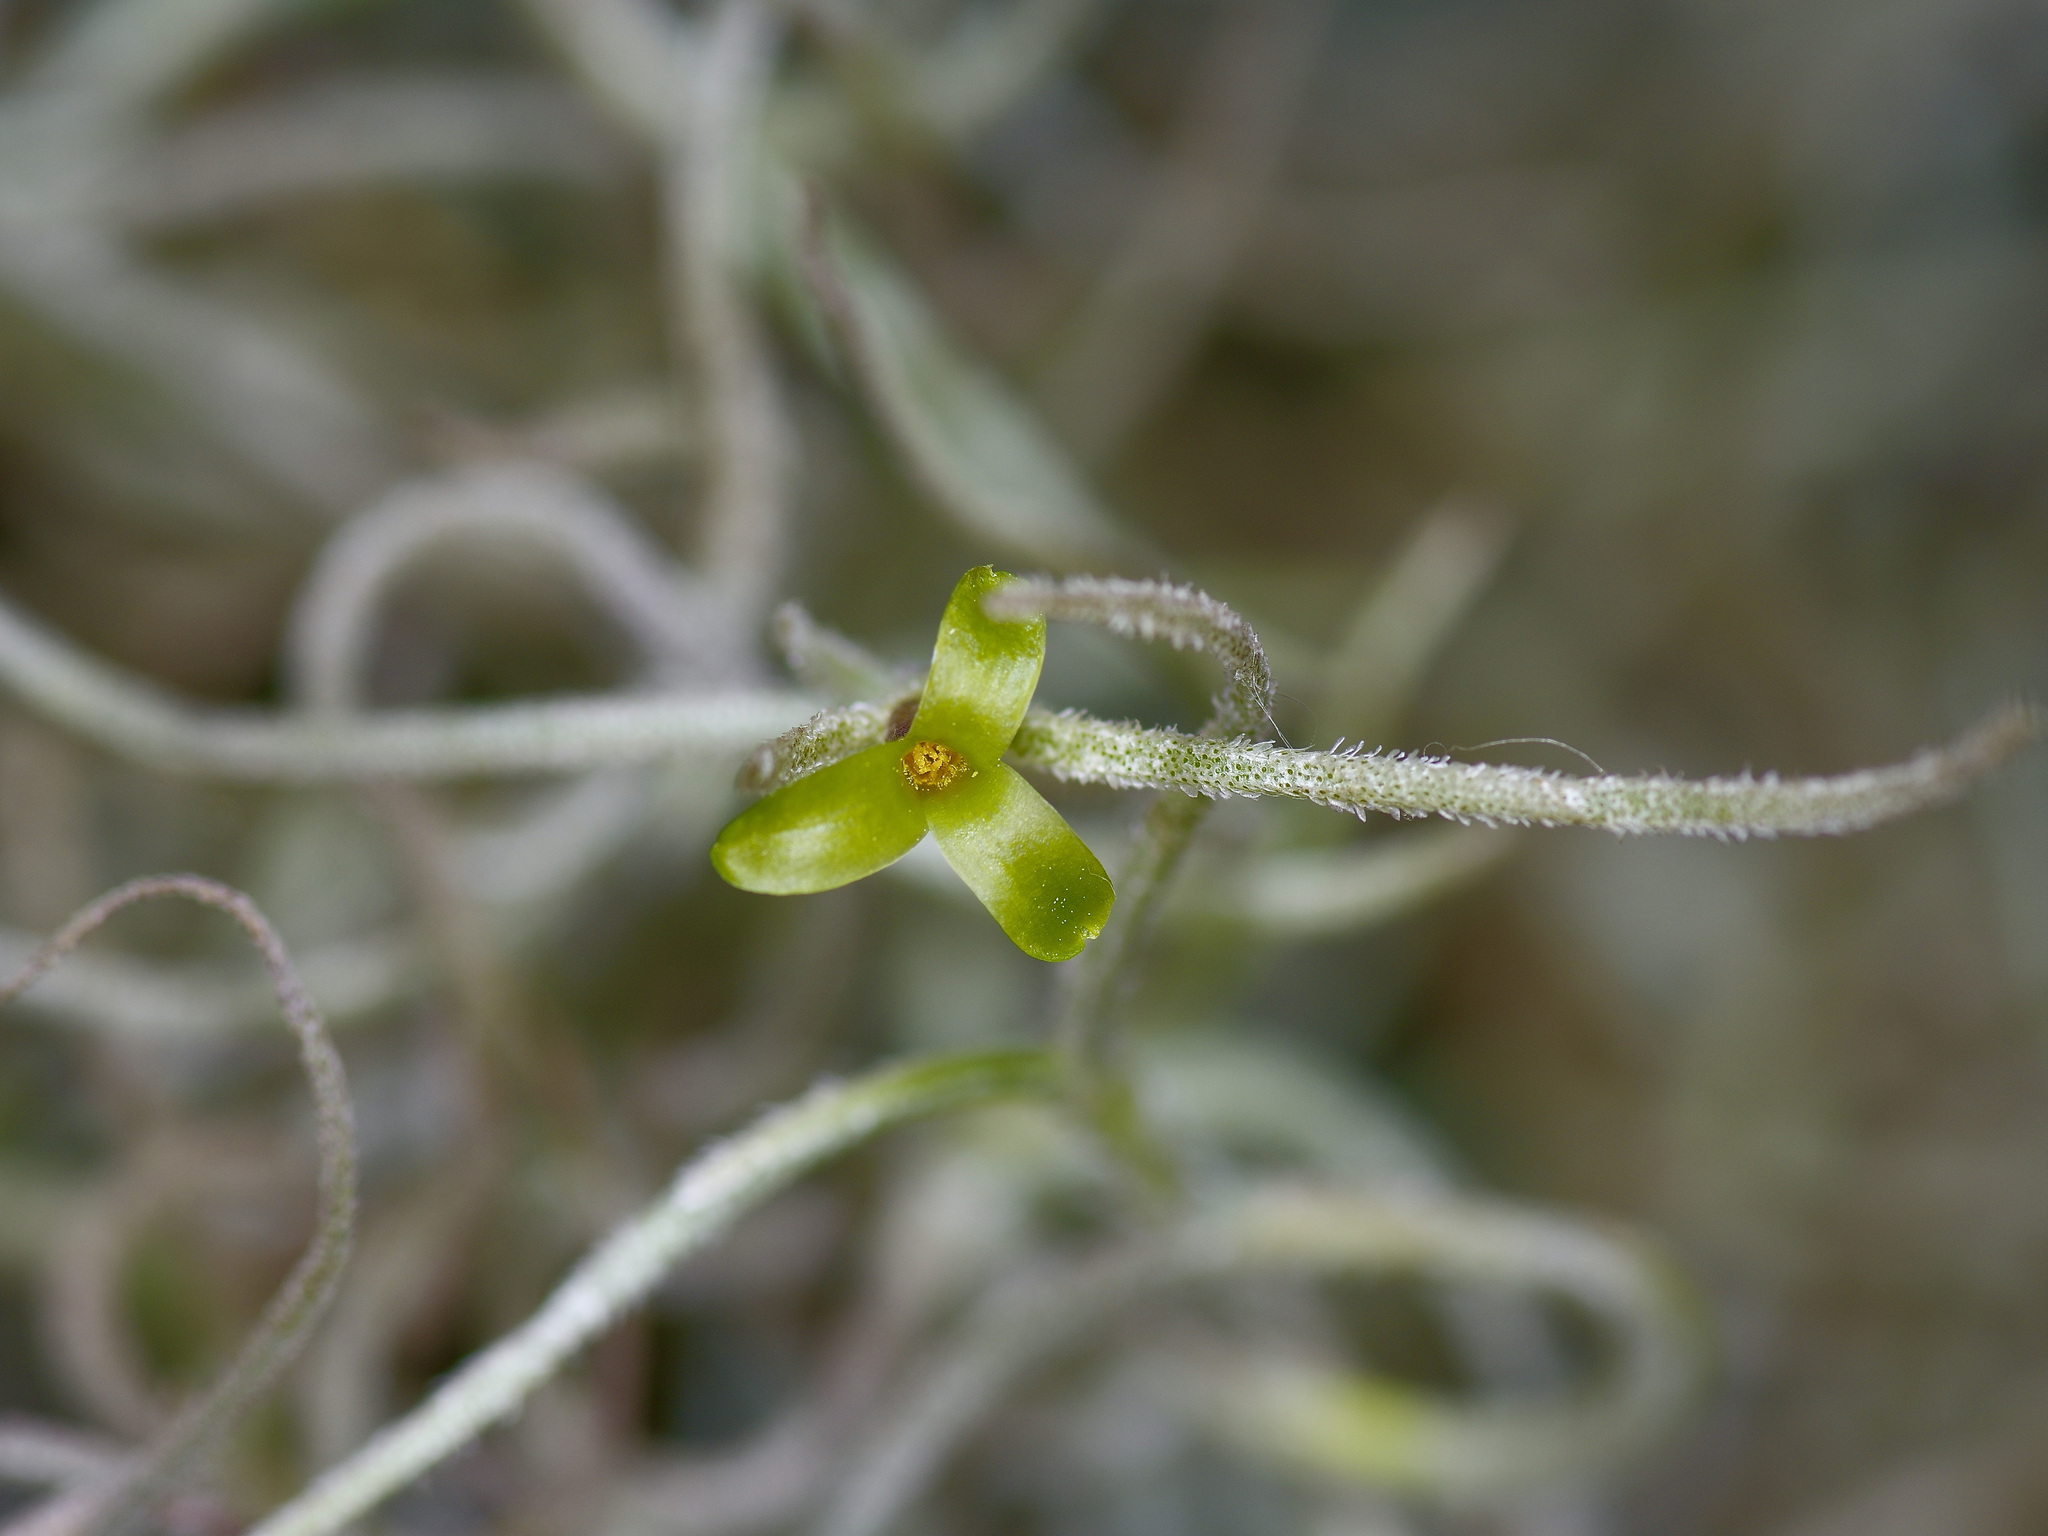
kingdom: Plantae
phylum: Tracheophyta
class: Liliopsida
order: Poales
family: Bromeliaceae
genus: Tillandsia
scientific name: Tillandsia usneoides
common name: Spanish moss
